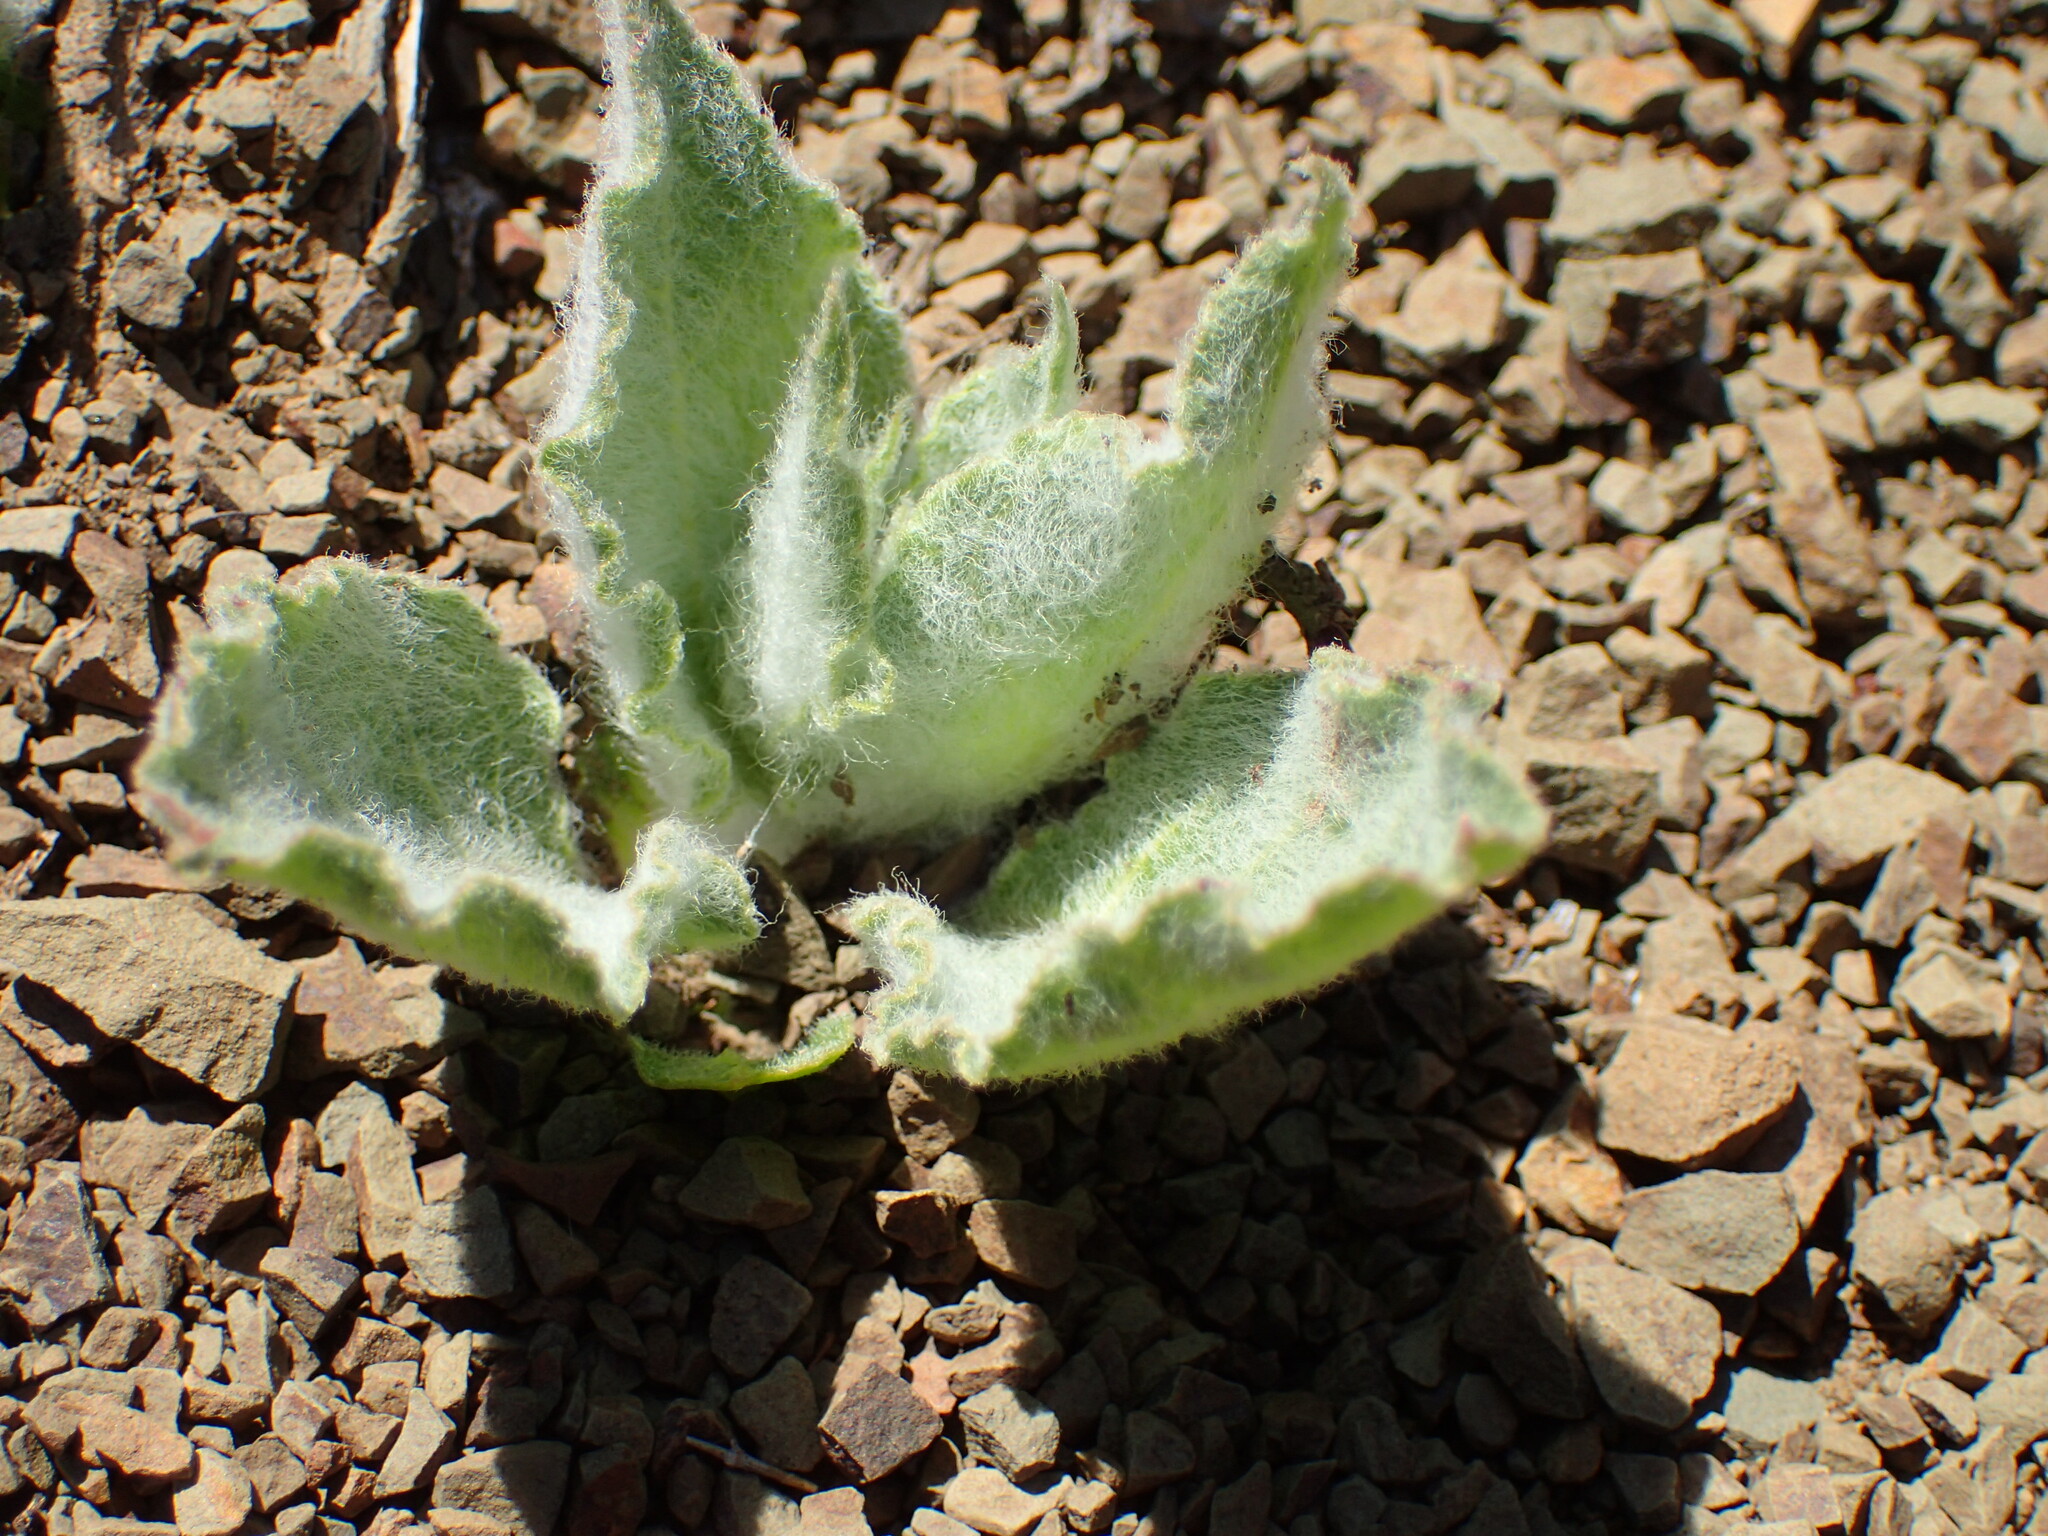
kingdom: Plantae
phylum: Tracheophyta
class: Magnoliopsida
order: Gentianales
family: Apocynaceae
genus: Asclepias
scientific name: Asclepias californica
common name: California milkweed
